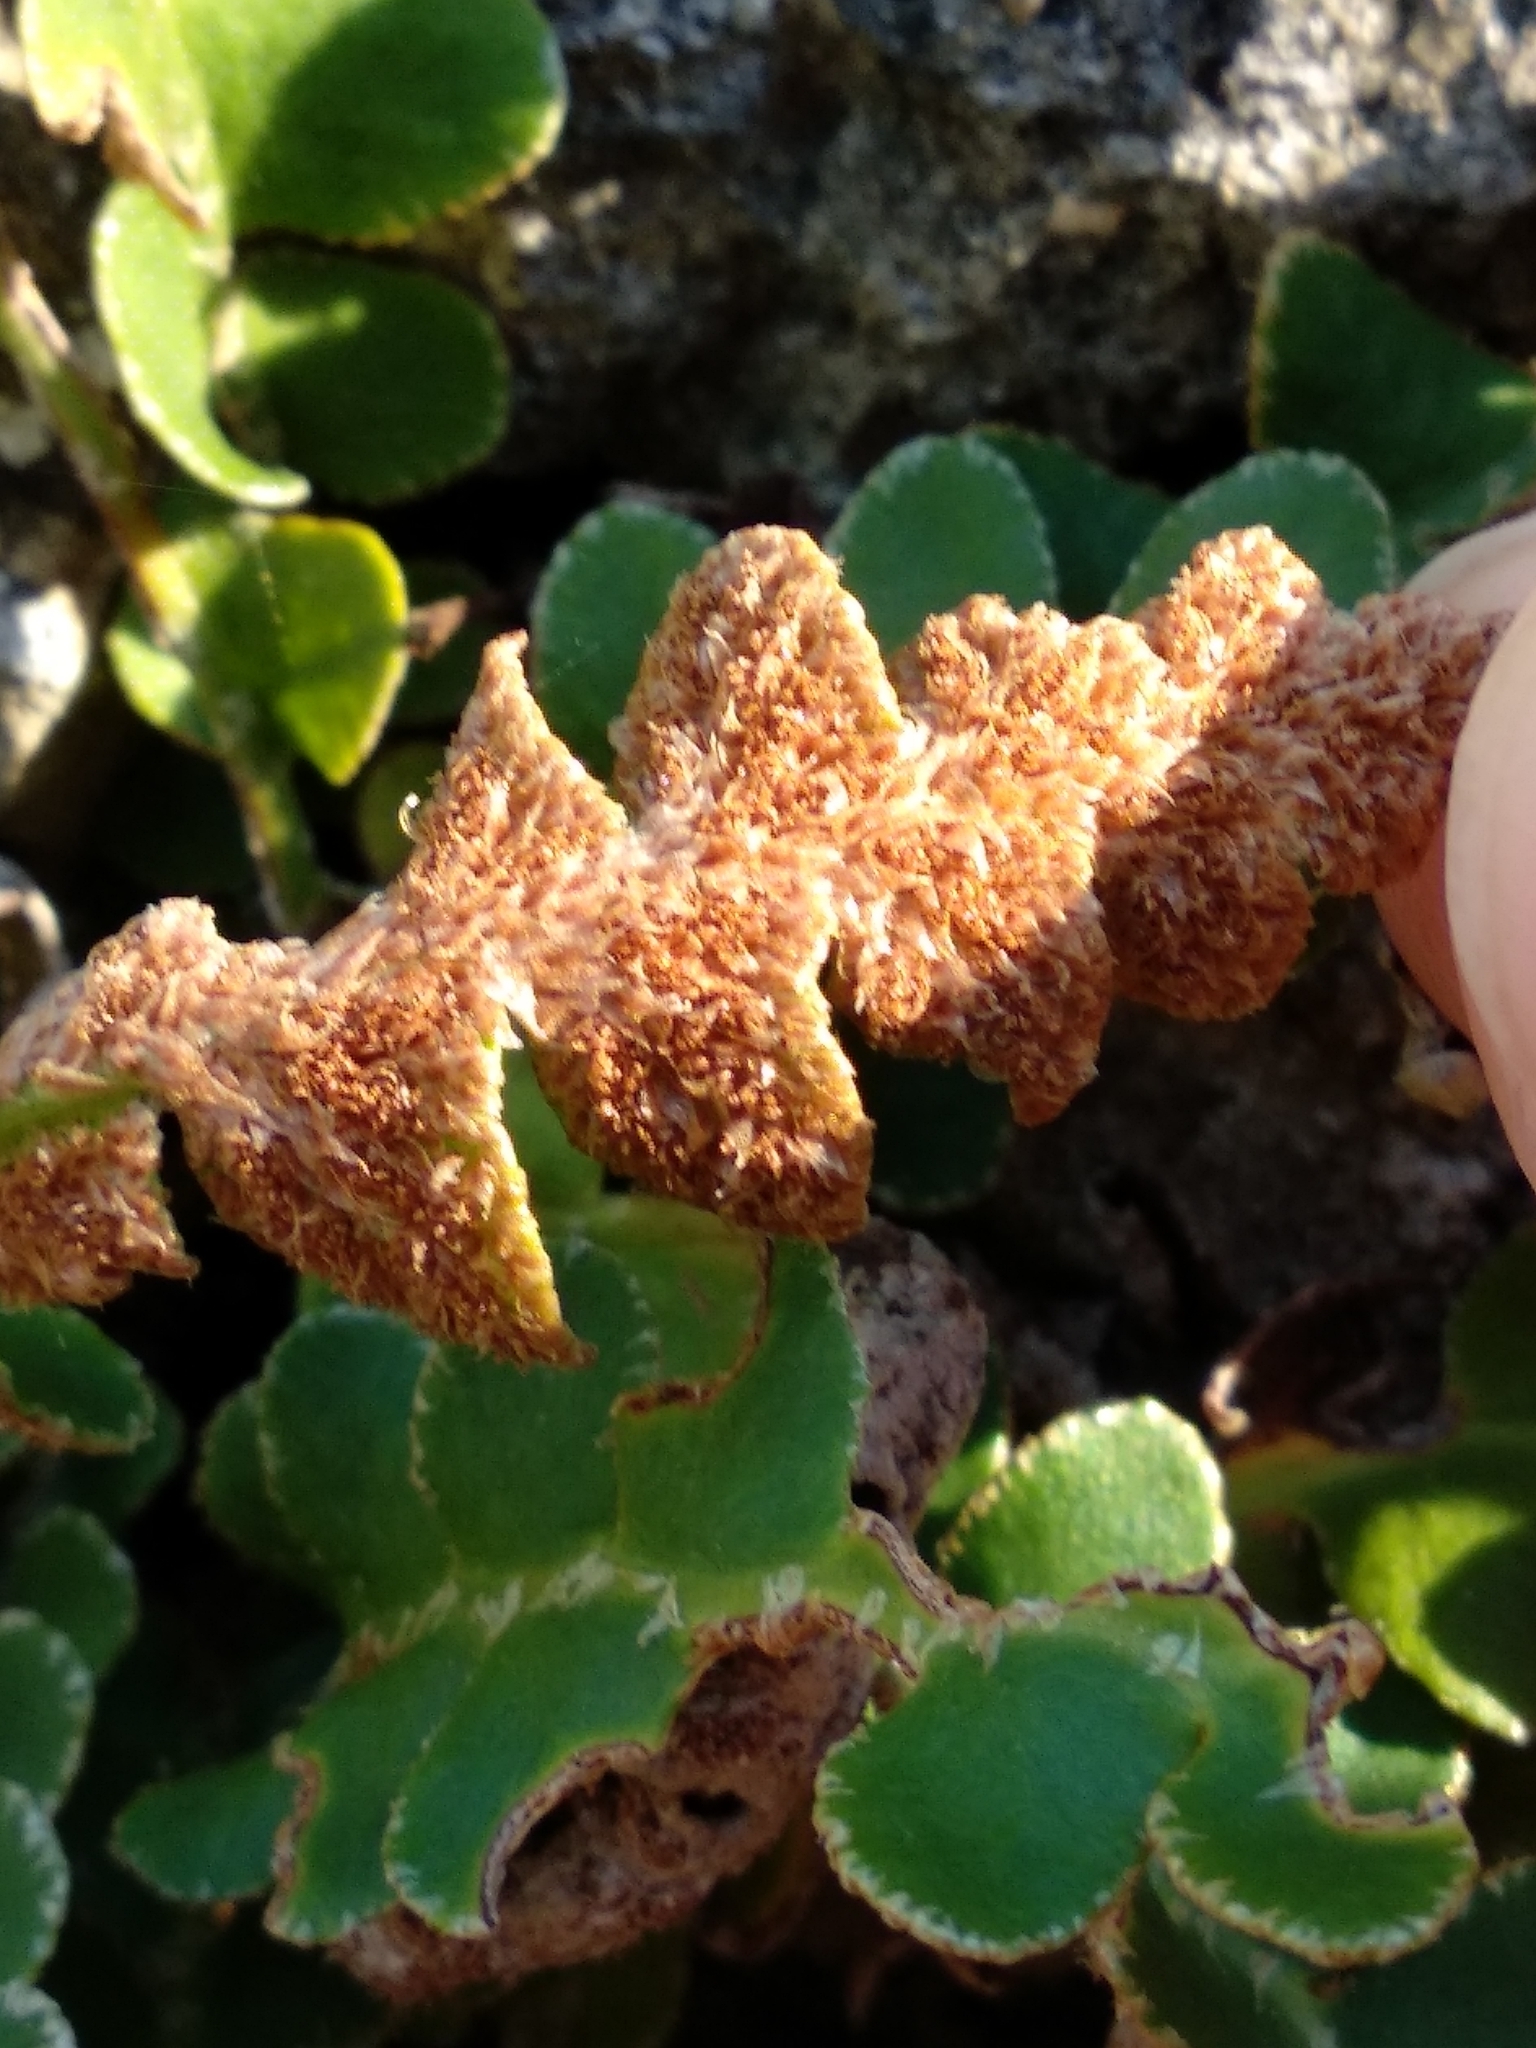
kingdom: Plantae
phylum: Tracheophyta
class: Polypodiopsida
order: Polypodiales
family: Aspleniaceae
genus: Asplenium
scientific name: Asplenium ceterach
